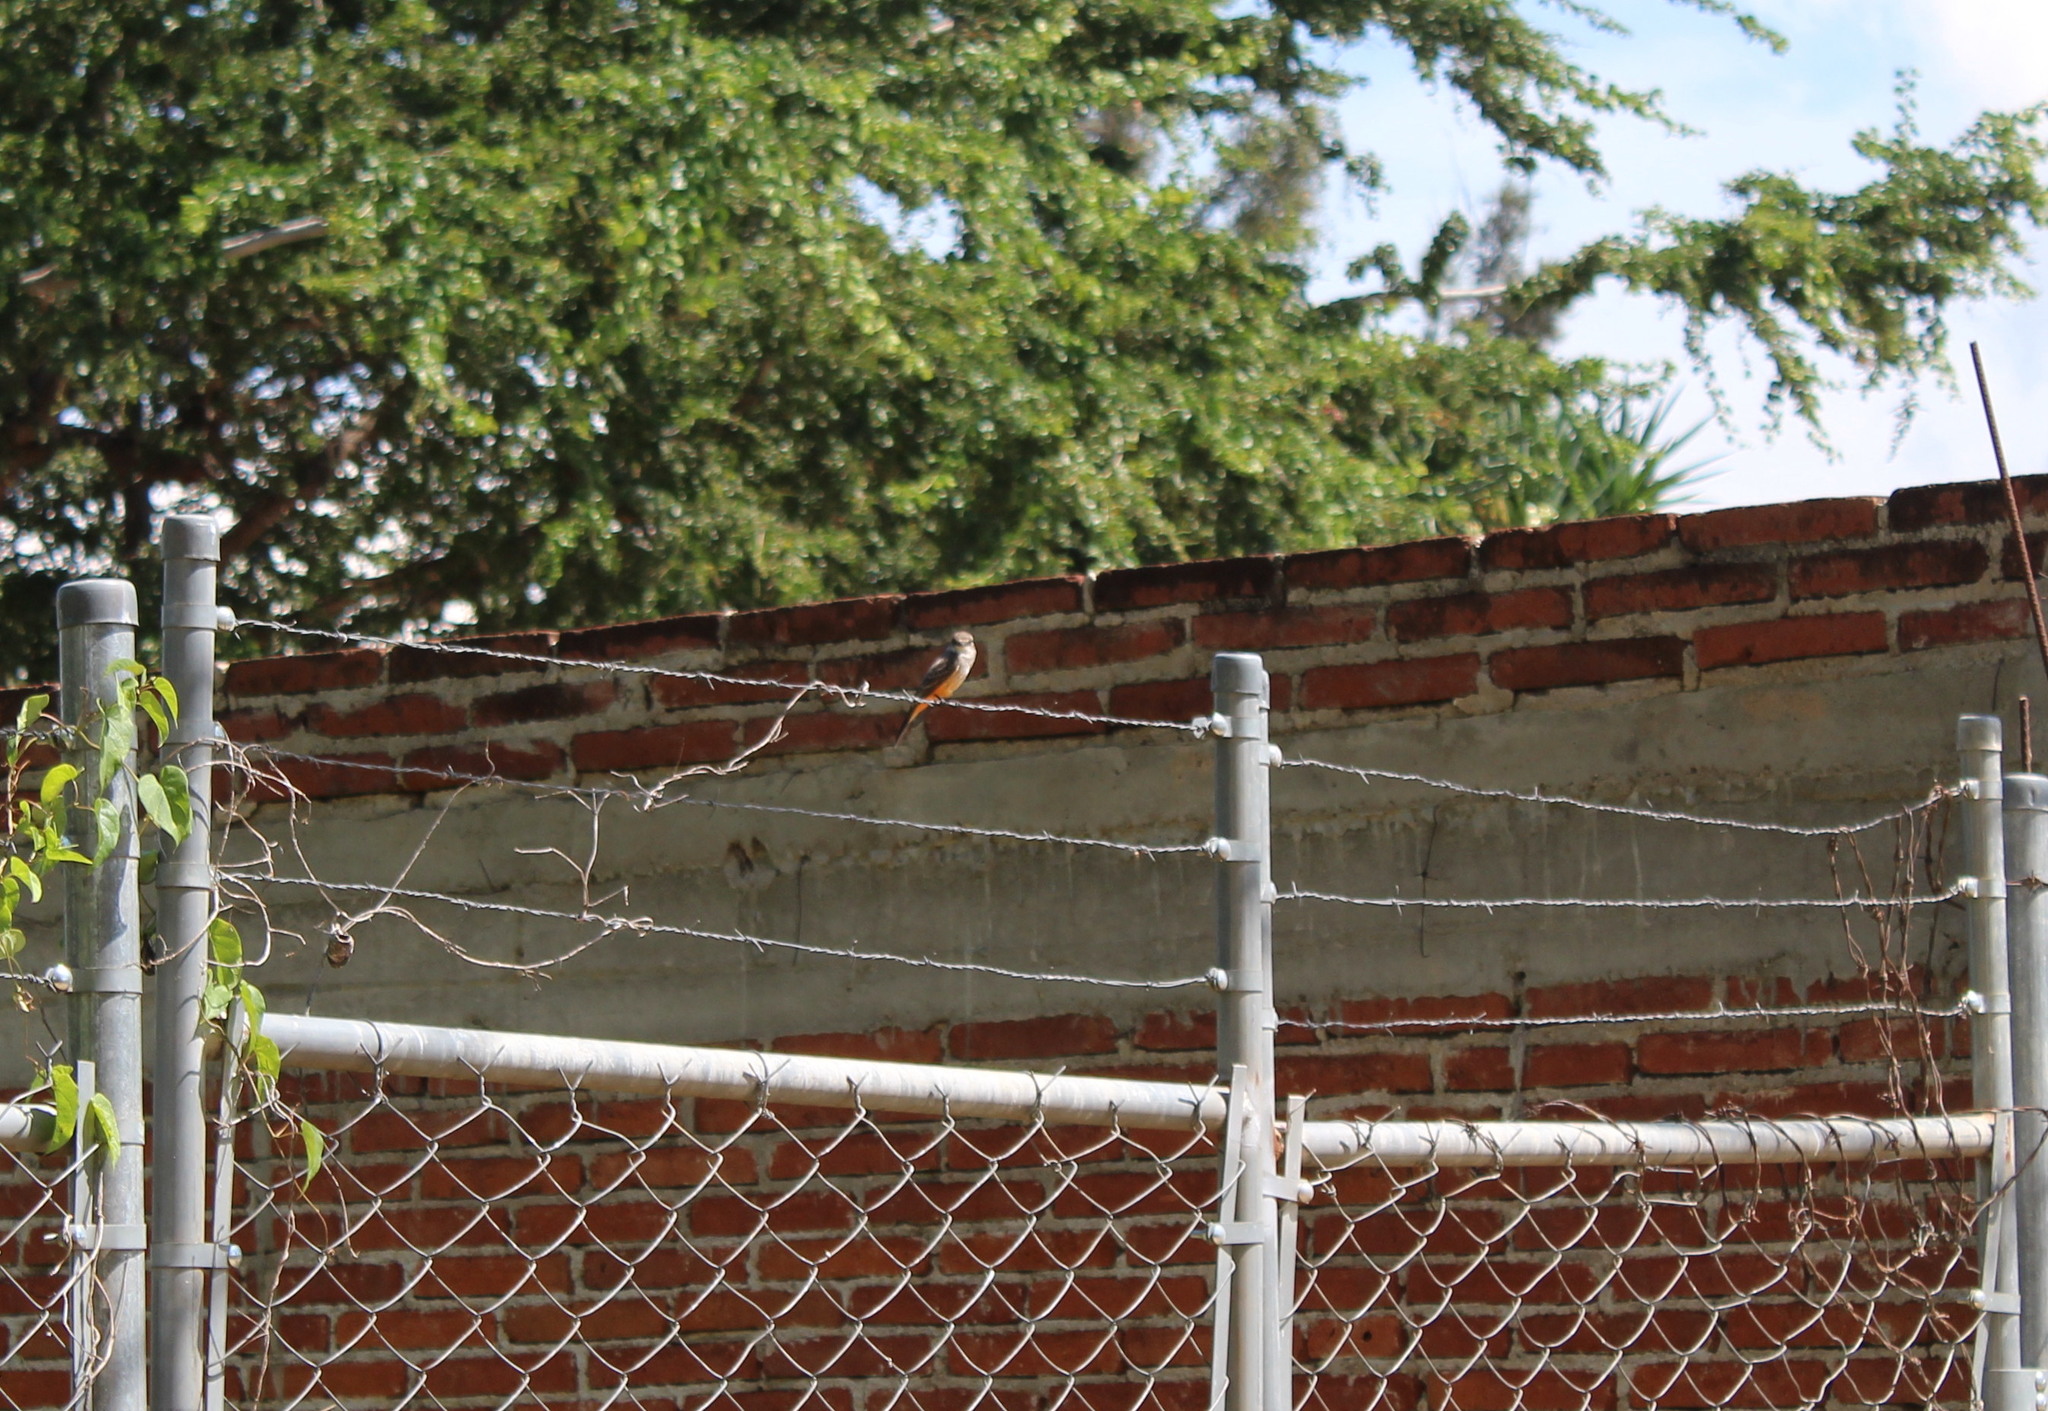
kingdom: Animalia
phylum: Chordata
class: Aves
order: Passeriformes
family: Tyrannidae
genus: Pyrocephalus
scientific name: Pyrocephalus rubinus
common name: Vermilion flycatcher
